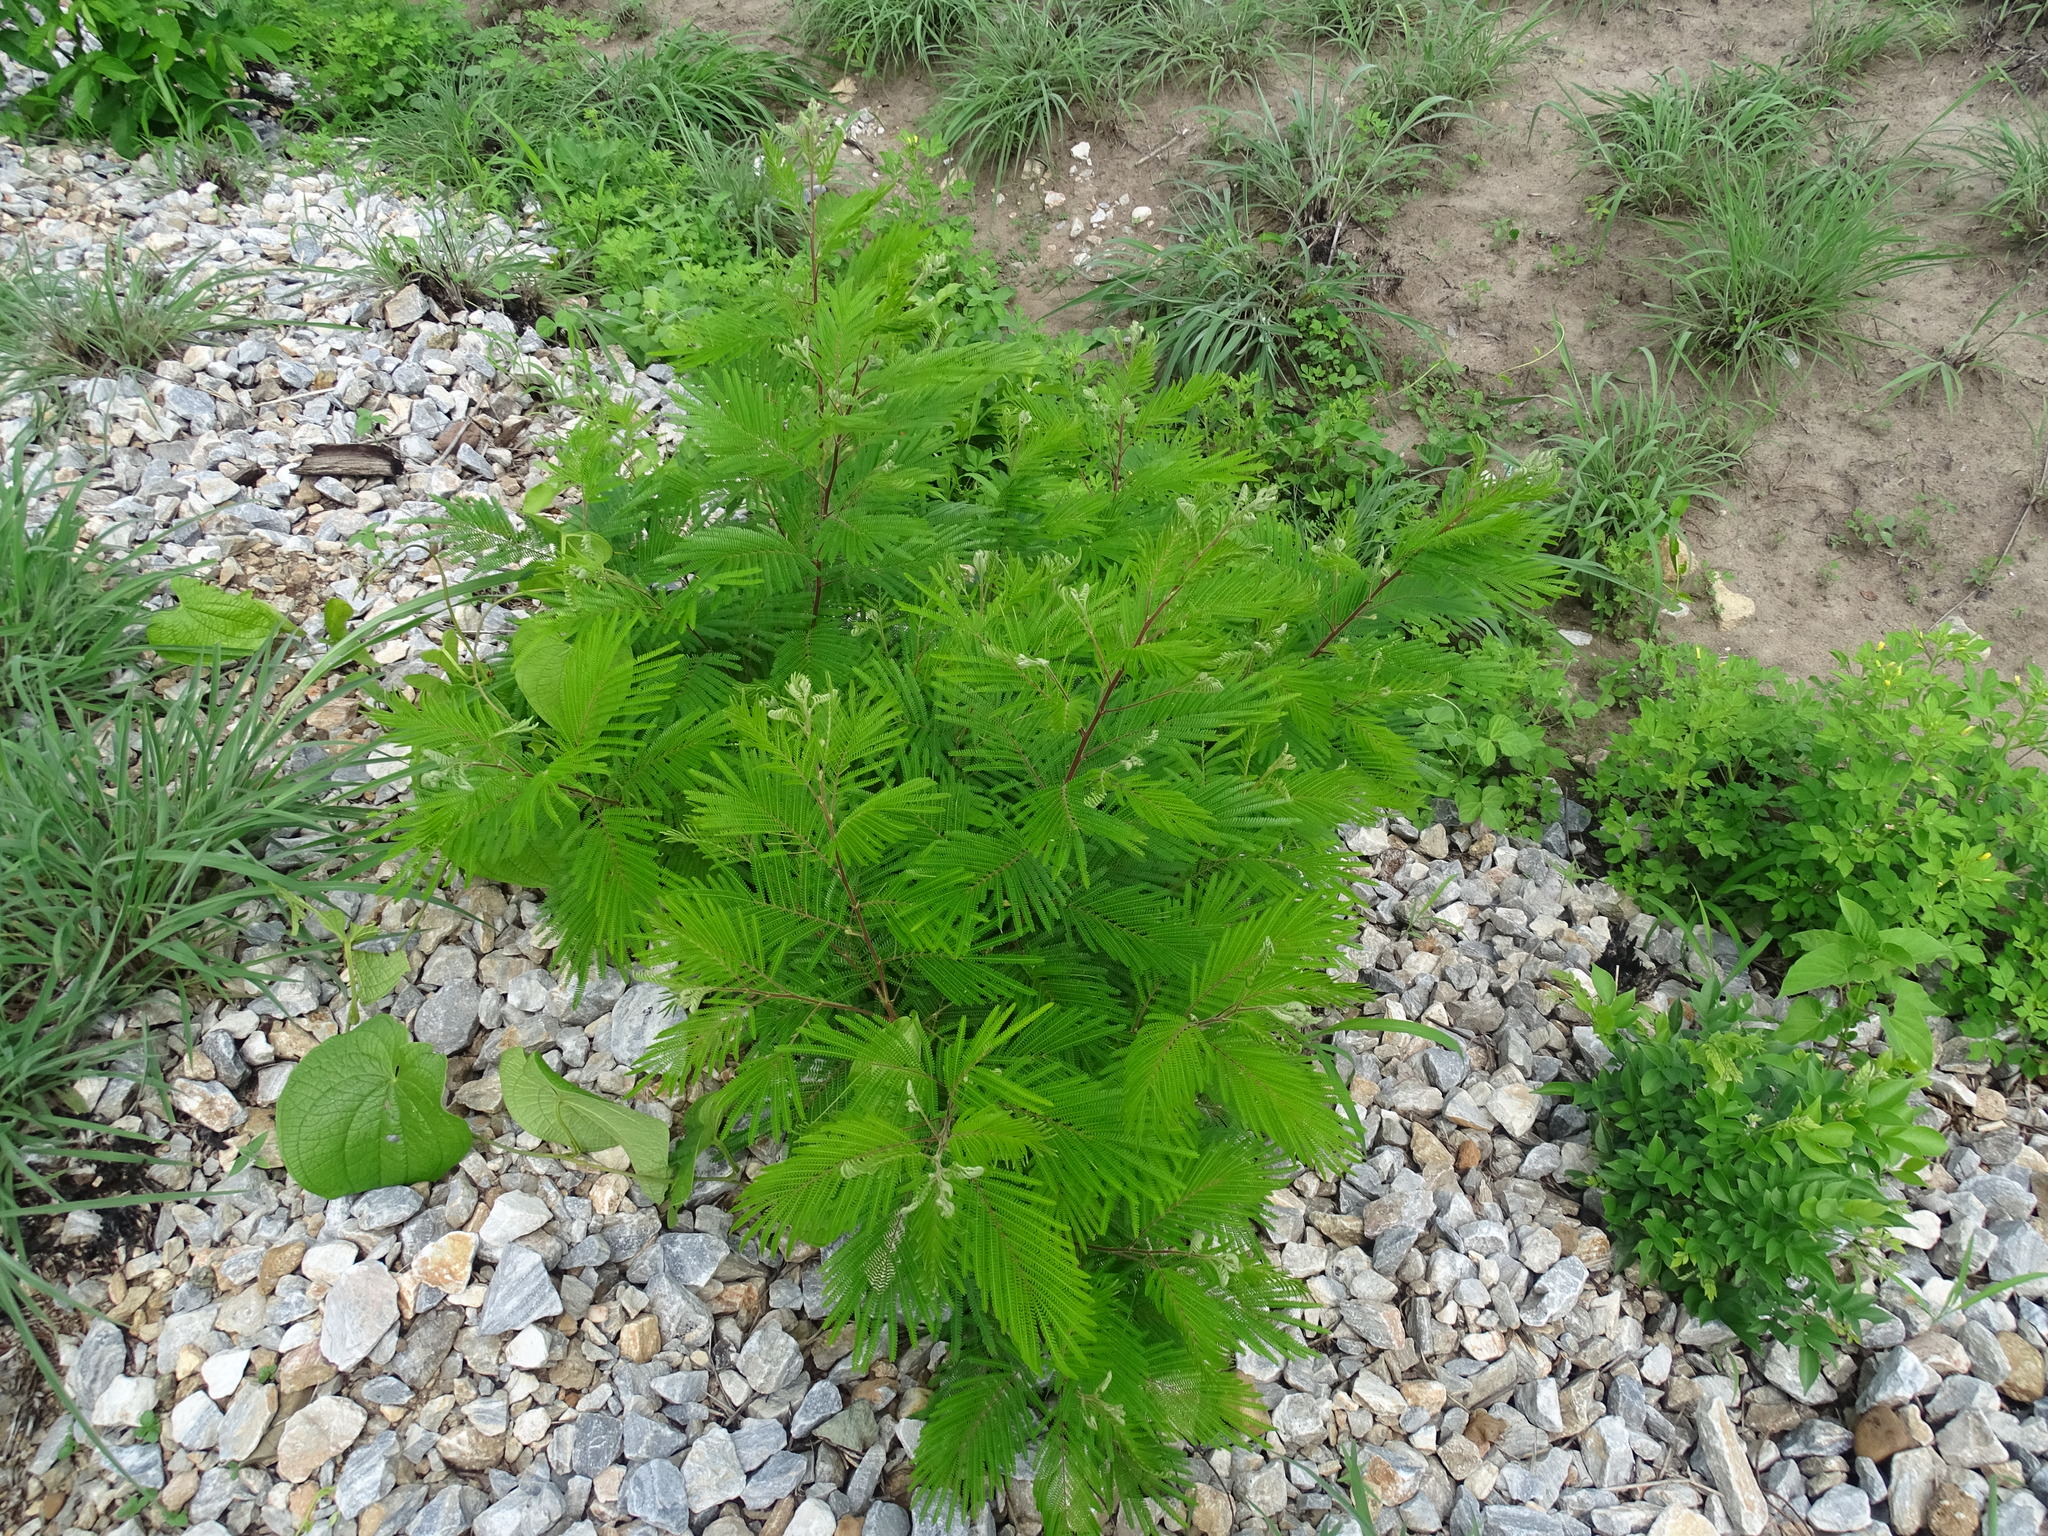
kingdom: Plantae
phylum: Tracheophyta
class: Magnoliopsida
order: Fabales
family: Fabaceae
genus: Acaciella
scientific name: Acaciella villosa
